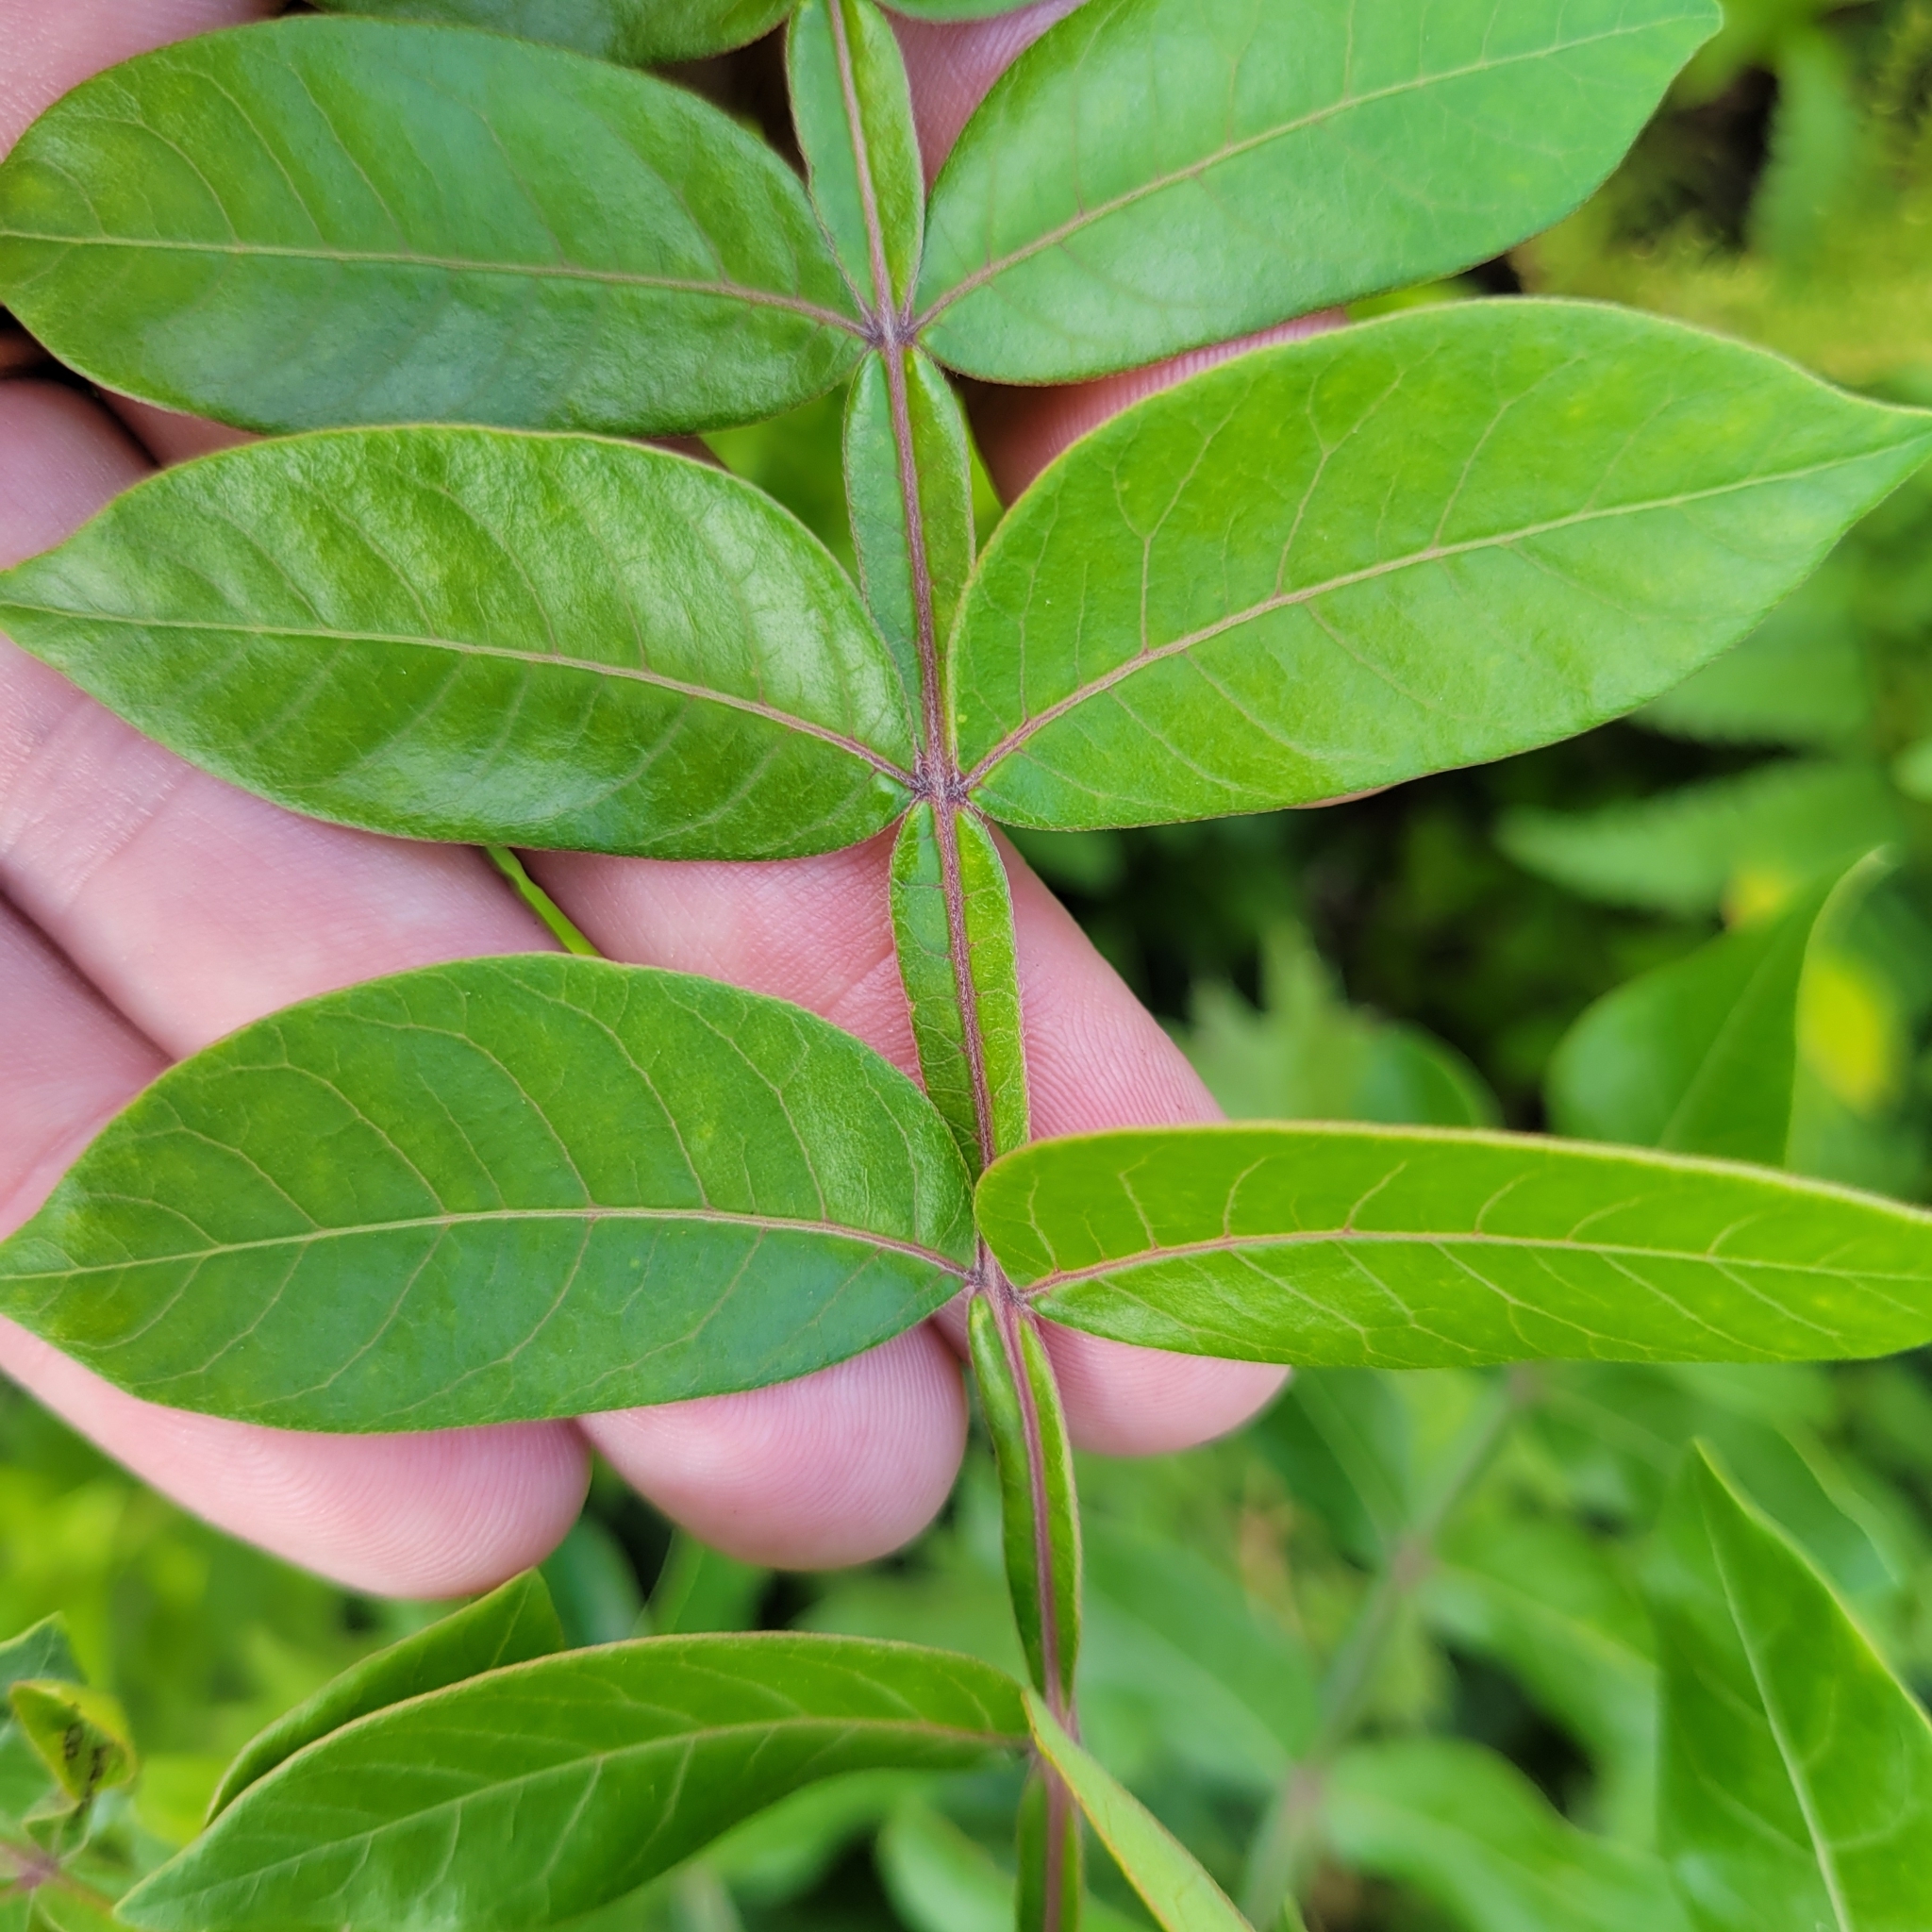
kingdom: Plantae
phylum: Tracheophyta
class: Magnoliopsida
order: Sapindales
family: Anacardiaceae
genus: Rhus
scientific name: Rhus copallina
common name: Shining sumac
